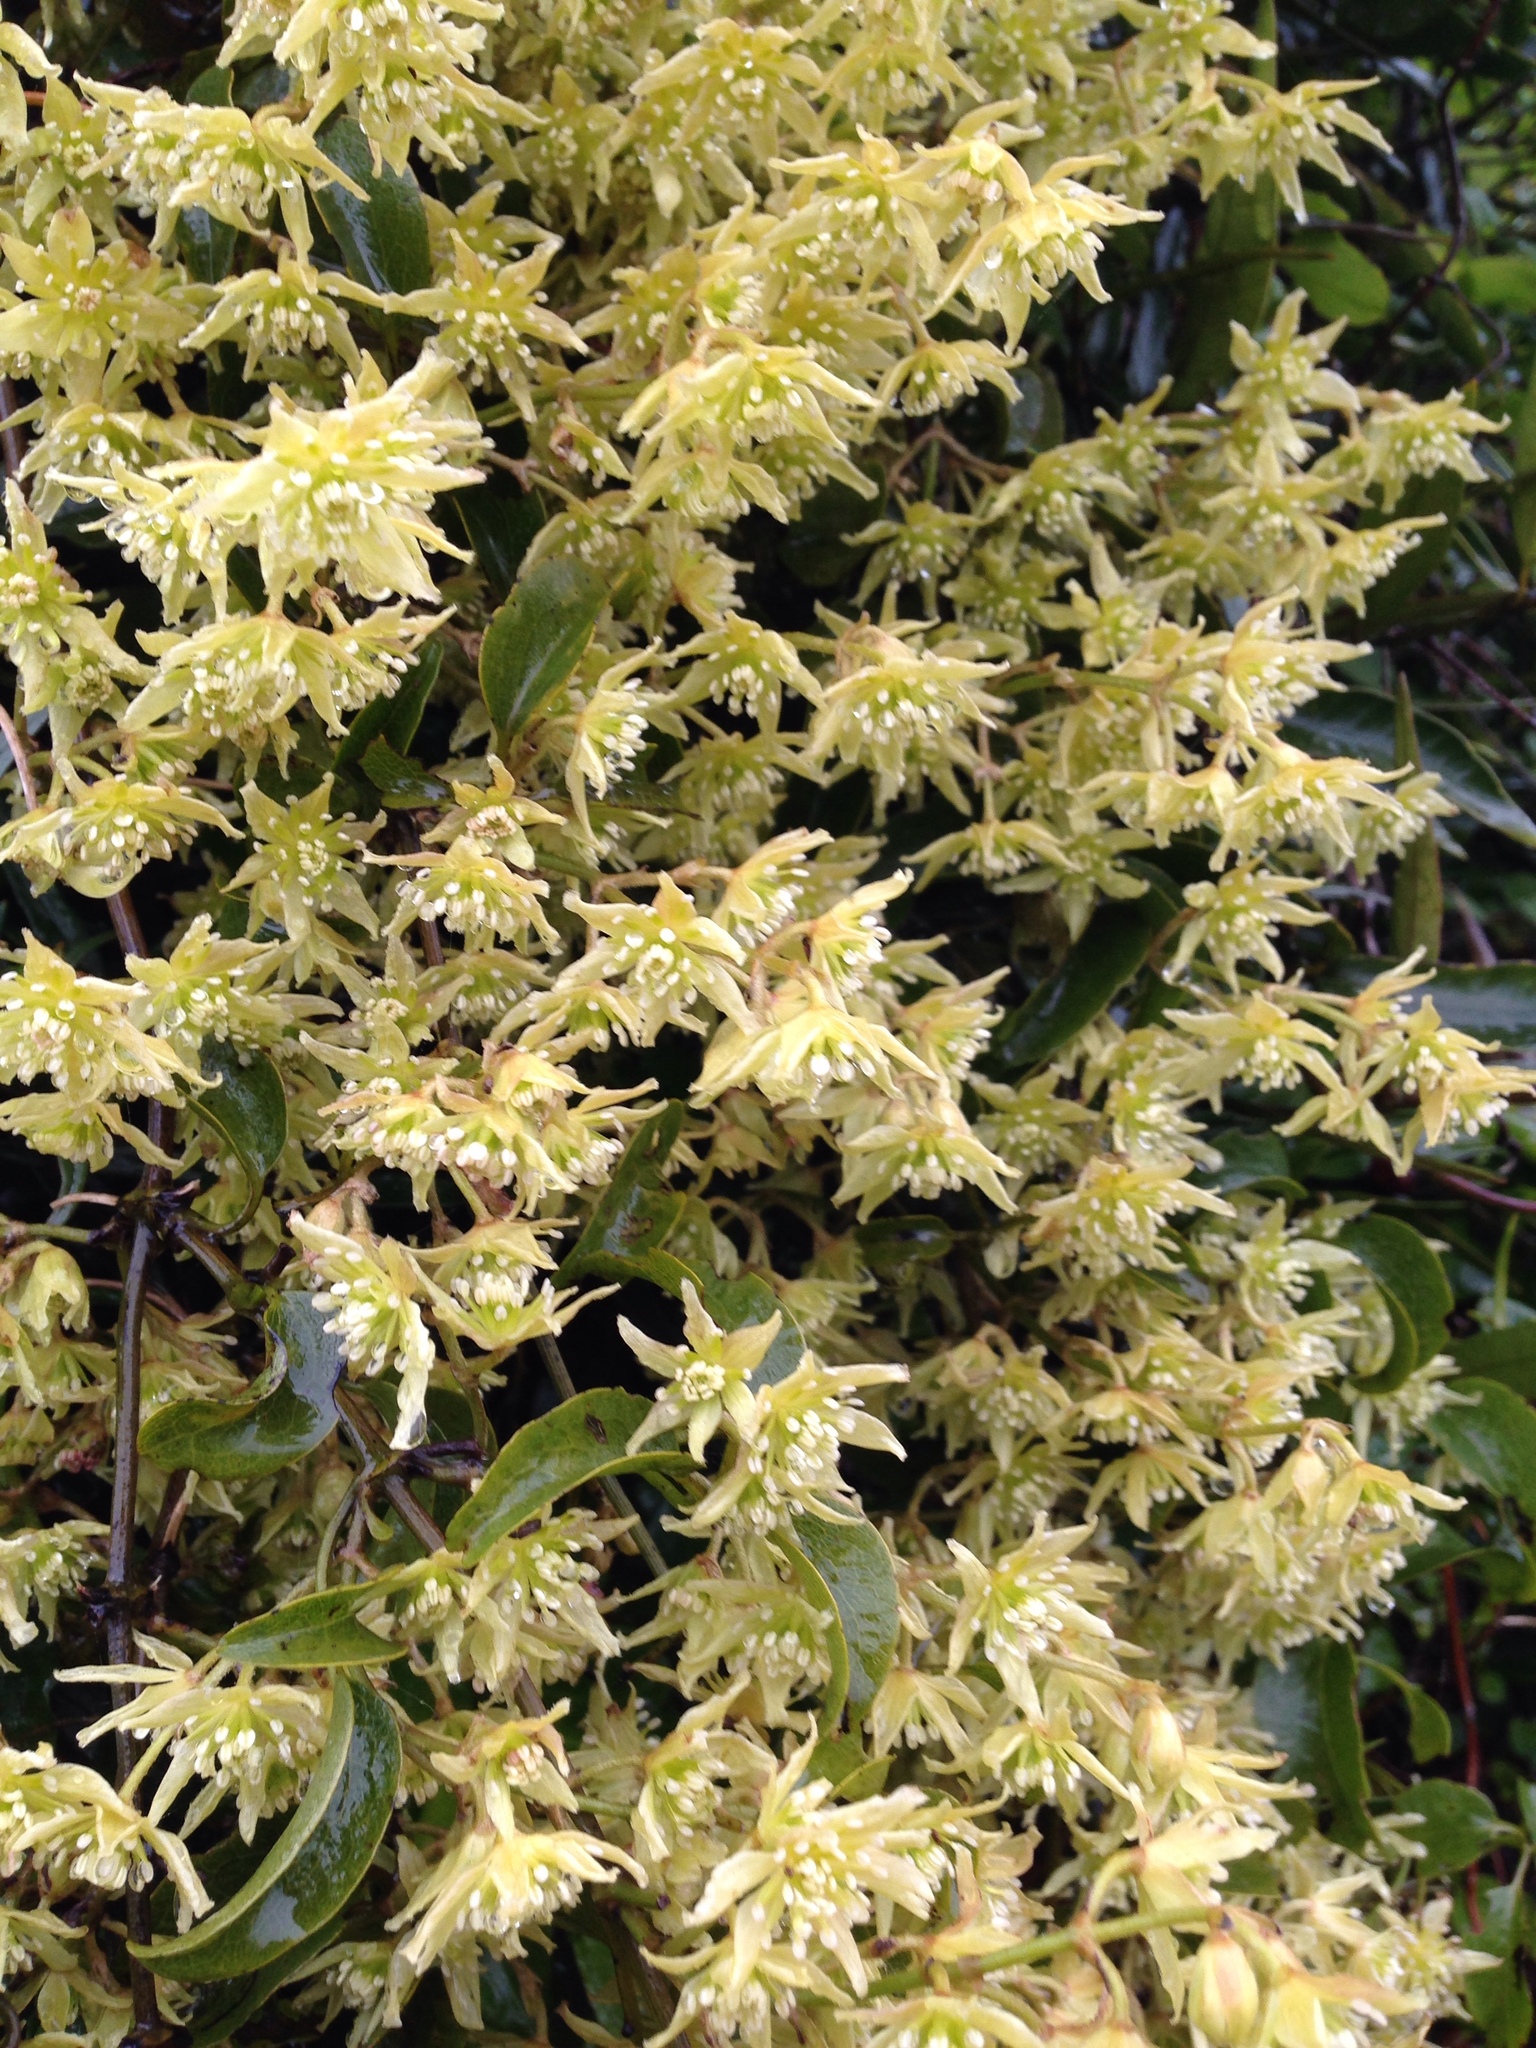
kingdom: Plantae
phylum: Tracheophyta
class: Magnoliopsida
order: Ranunculales
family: Ranunculaceae
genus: Clematis
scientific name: Clematis foetida
